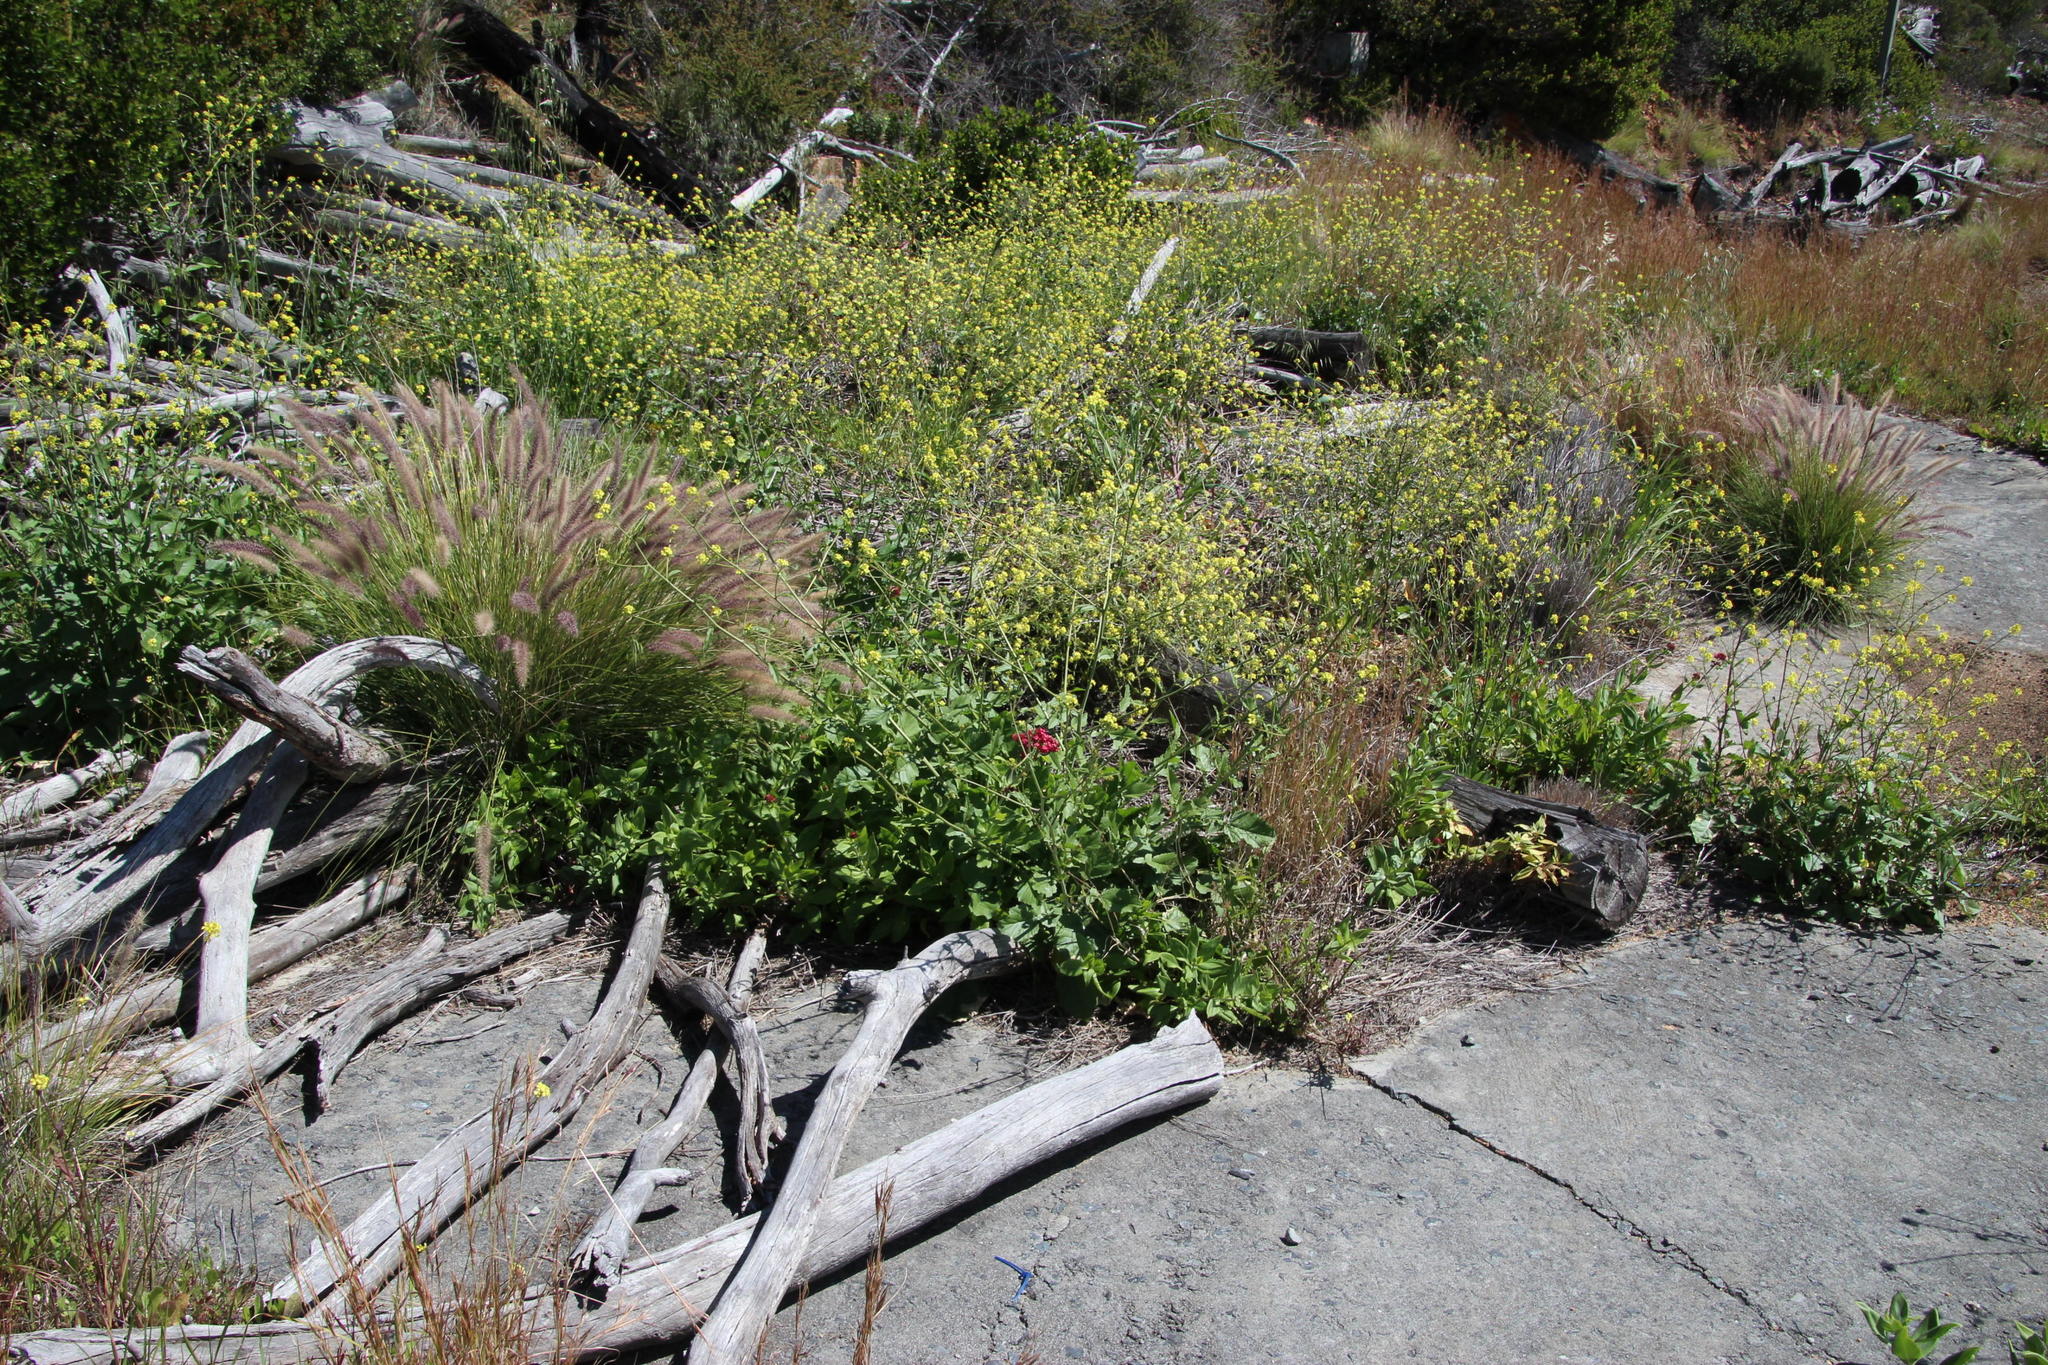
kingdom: Plantae
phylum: Tracheophyta
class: Liliopsida
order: Poales
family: Poaceae
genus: Cenchrus
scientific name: Cenchrus setaceus
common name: Crimson fountaingrass
